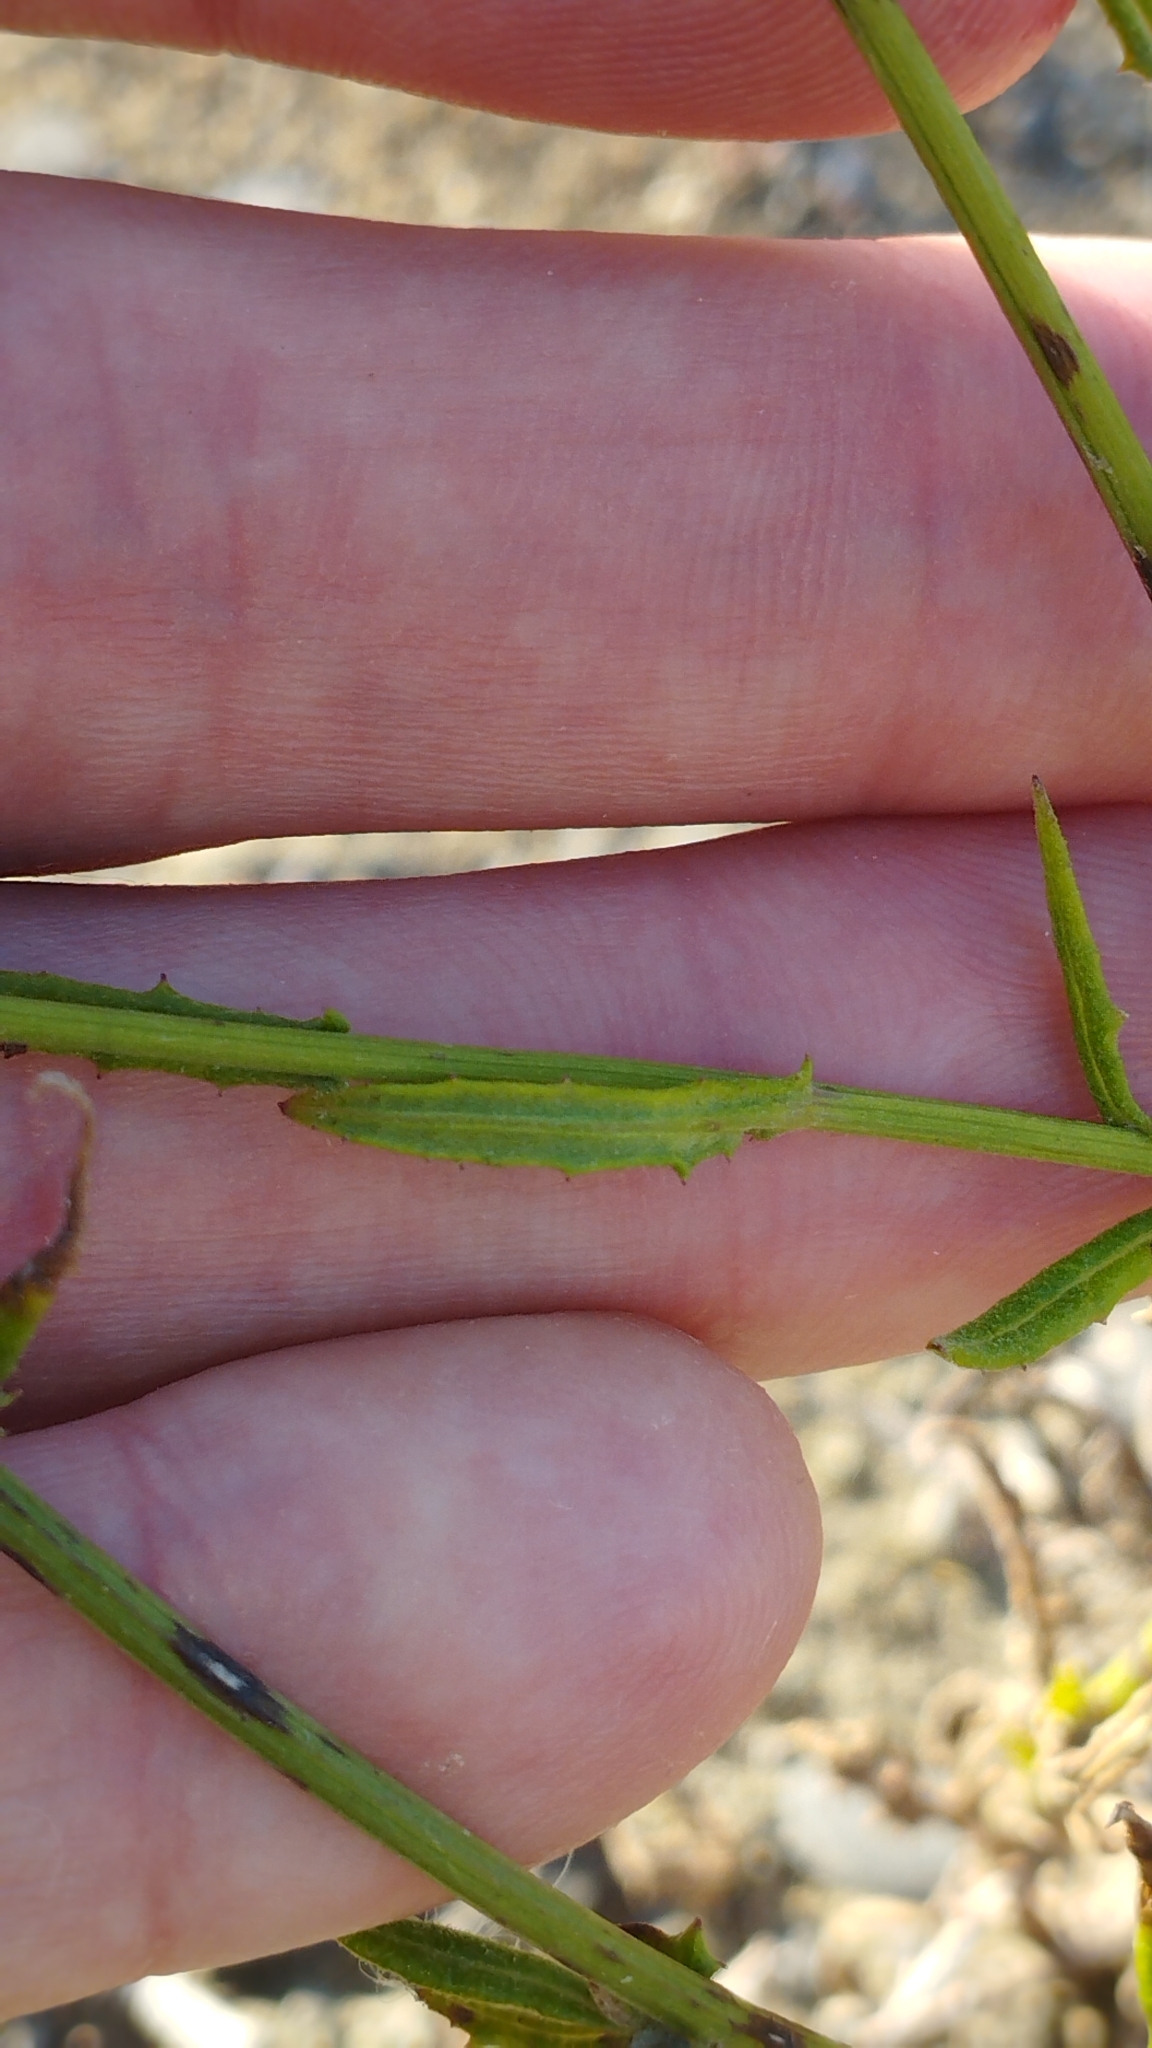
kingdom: Plantae
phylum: Tracheophyta
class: Magnoliopsida
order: Asterales
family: Asteraceae
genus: Senecio
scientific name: Senecio hispidulus
